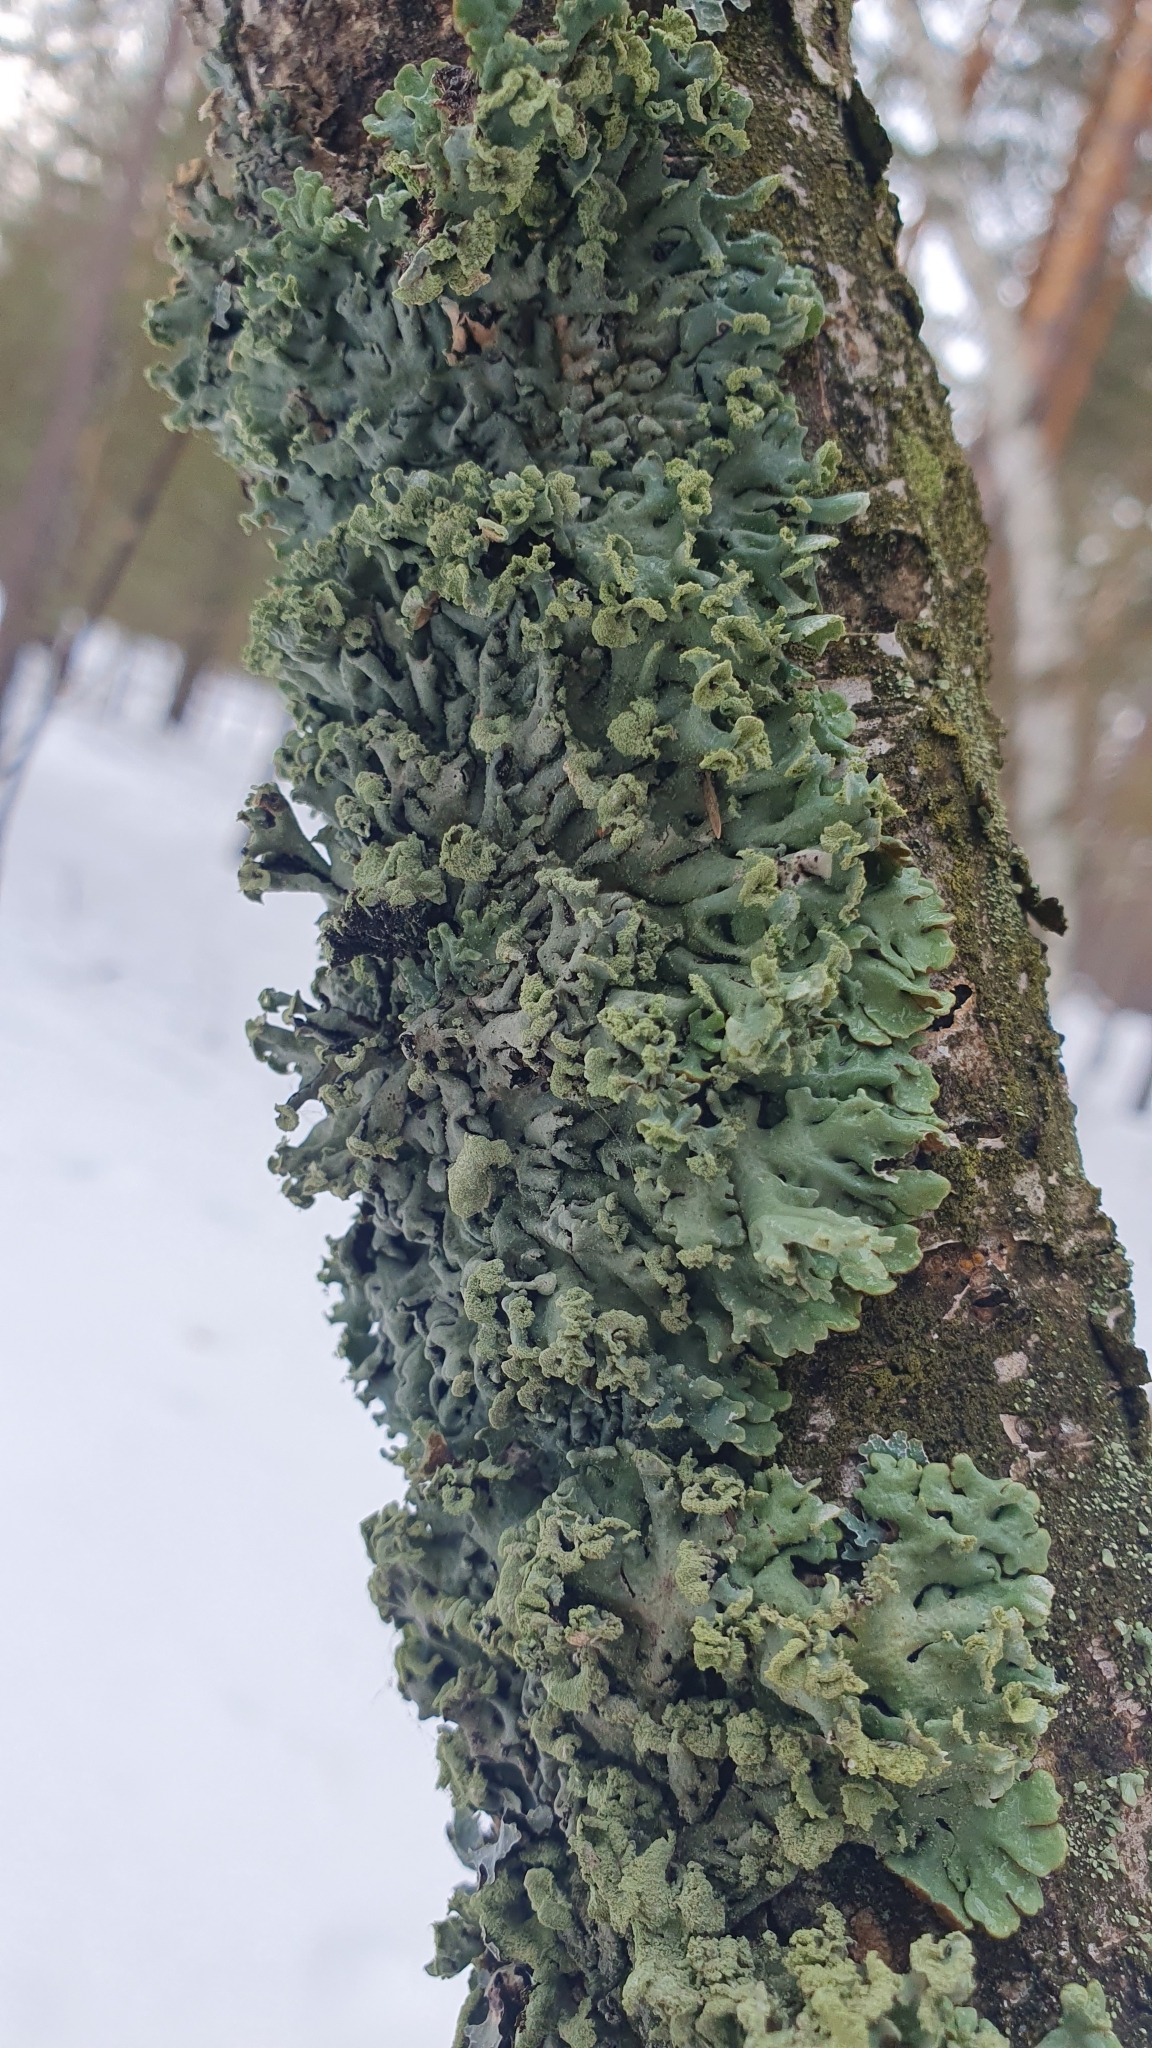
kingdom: Fungi
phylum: Ascomycota
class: Lecanoromycetes
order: Lecanorales
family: Parmeliaceae
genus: Hypogymnia
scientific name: Hypogymnia physodes
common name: Dark crottle
